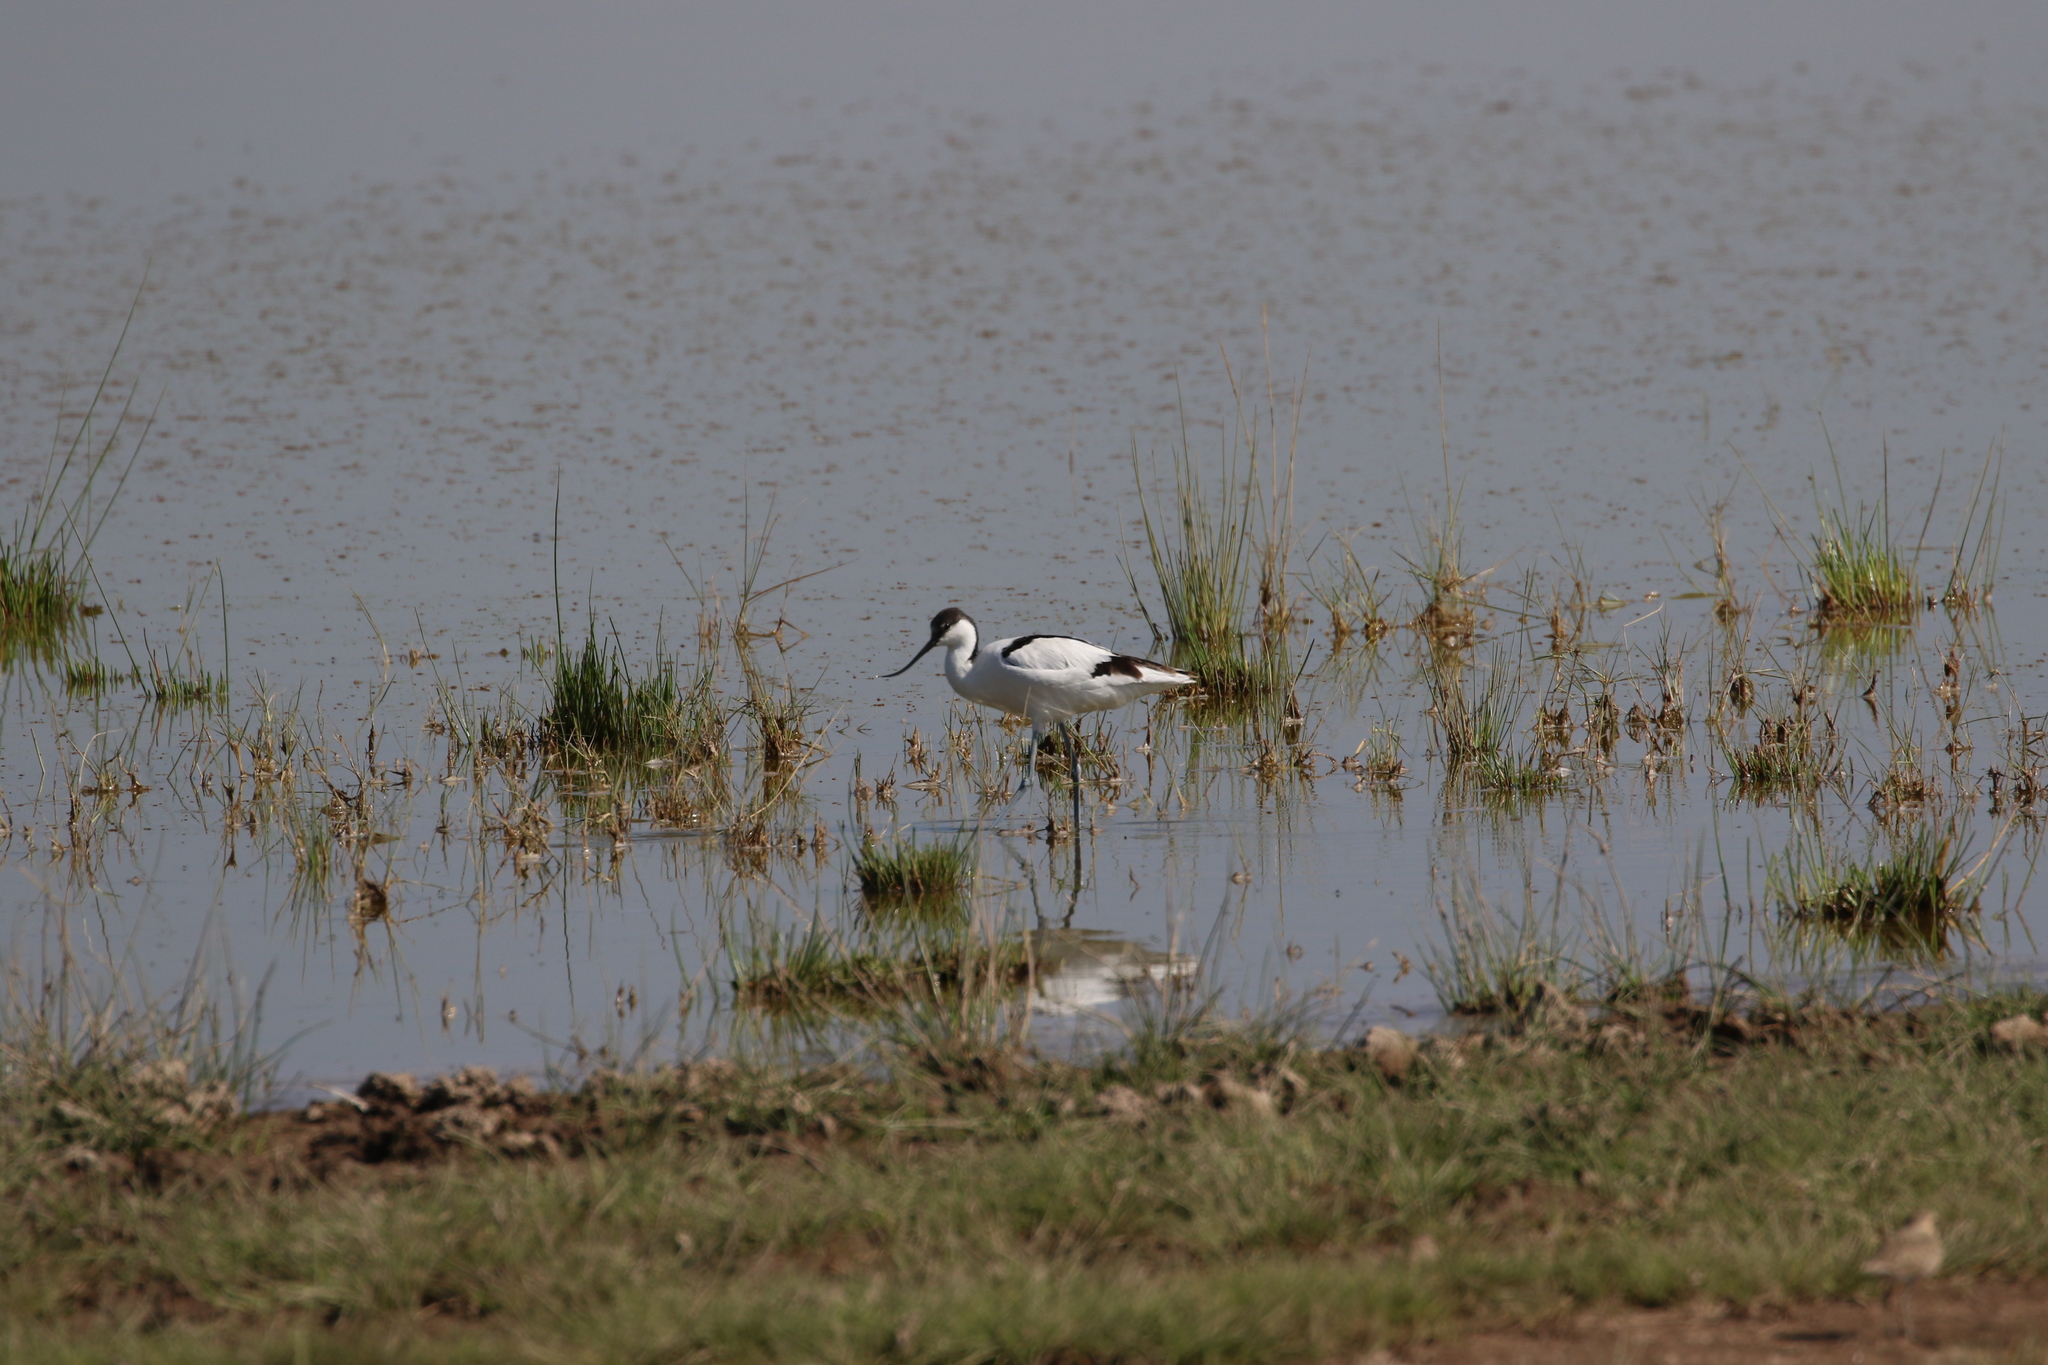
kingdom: Animalia
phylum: Chordata
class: Aves
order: Charadriiformes
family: Recurvirostridae
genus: Recurvirostra
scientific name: Recurvirostra avosetta
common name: Pied avocet
